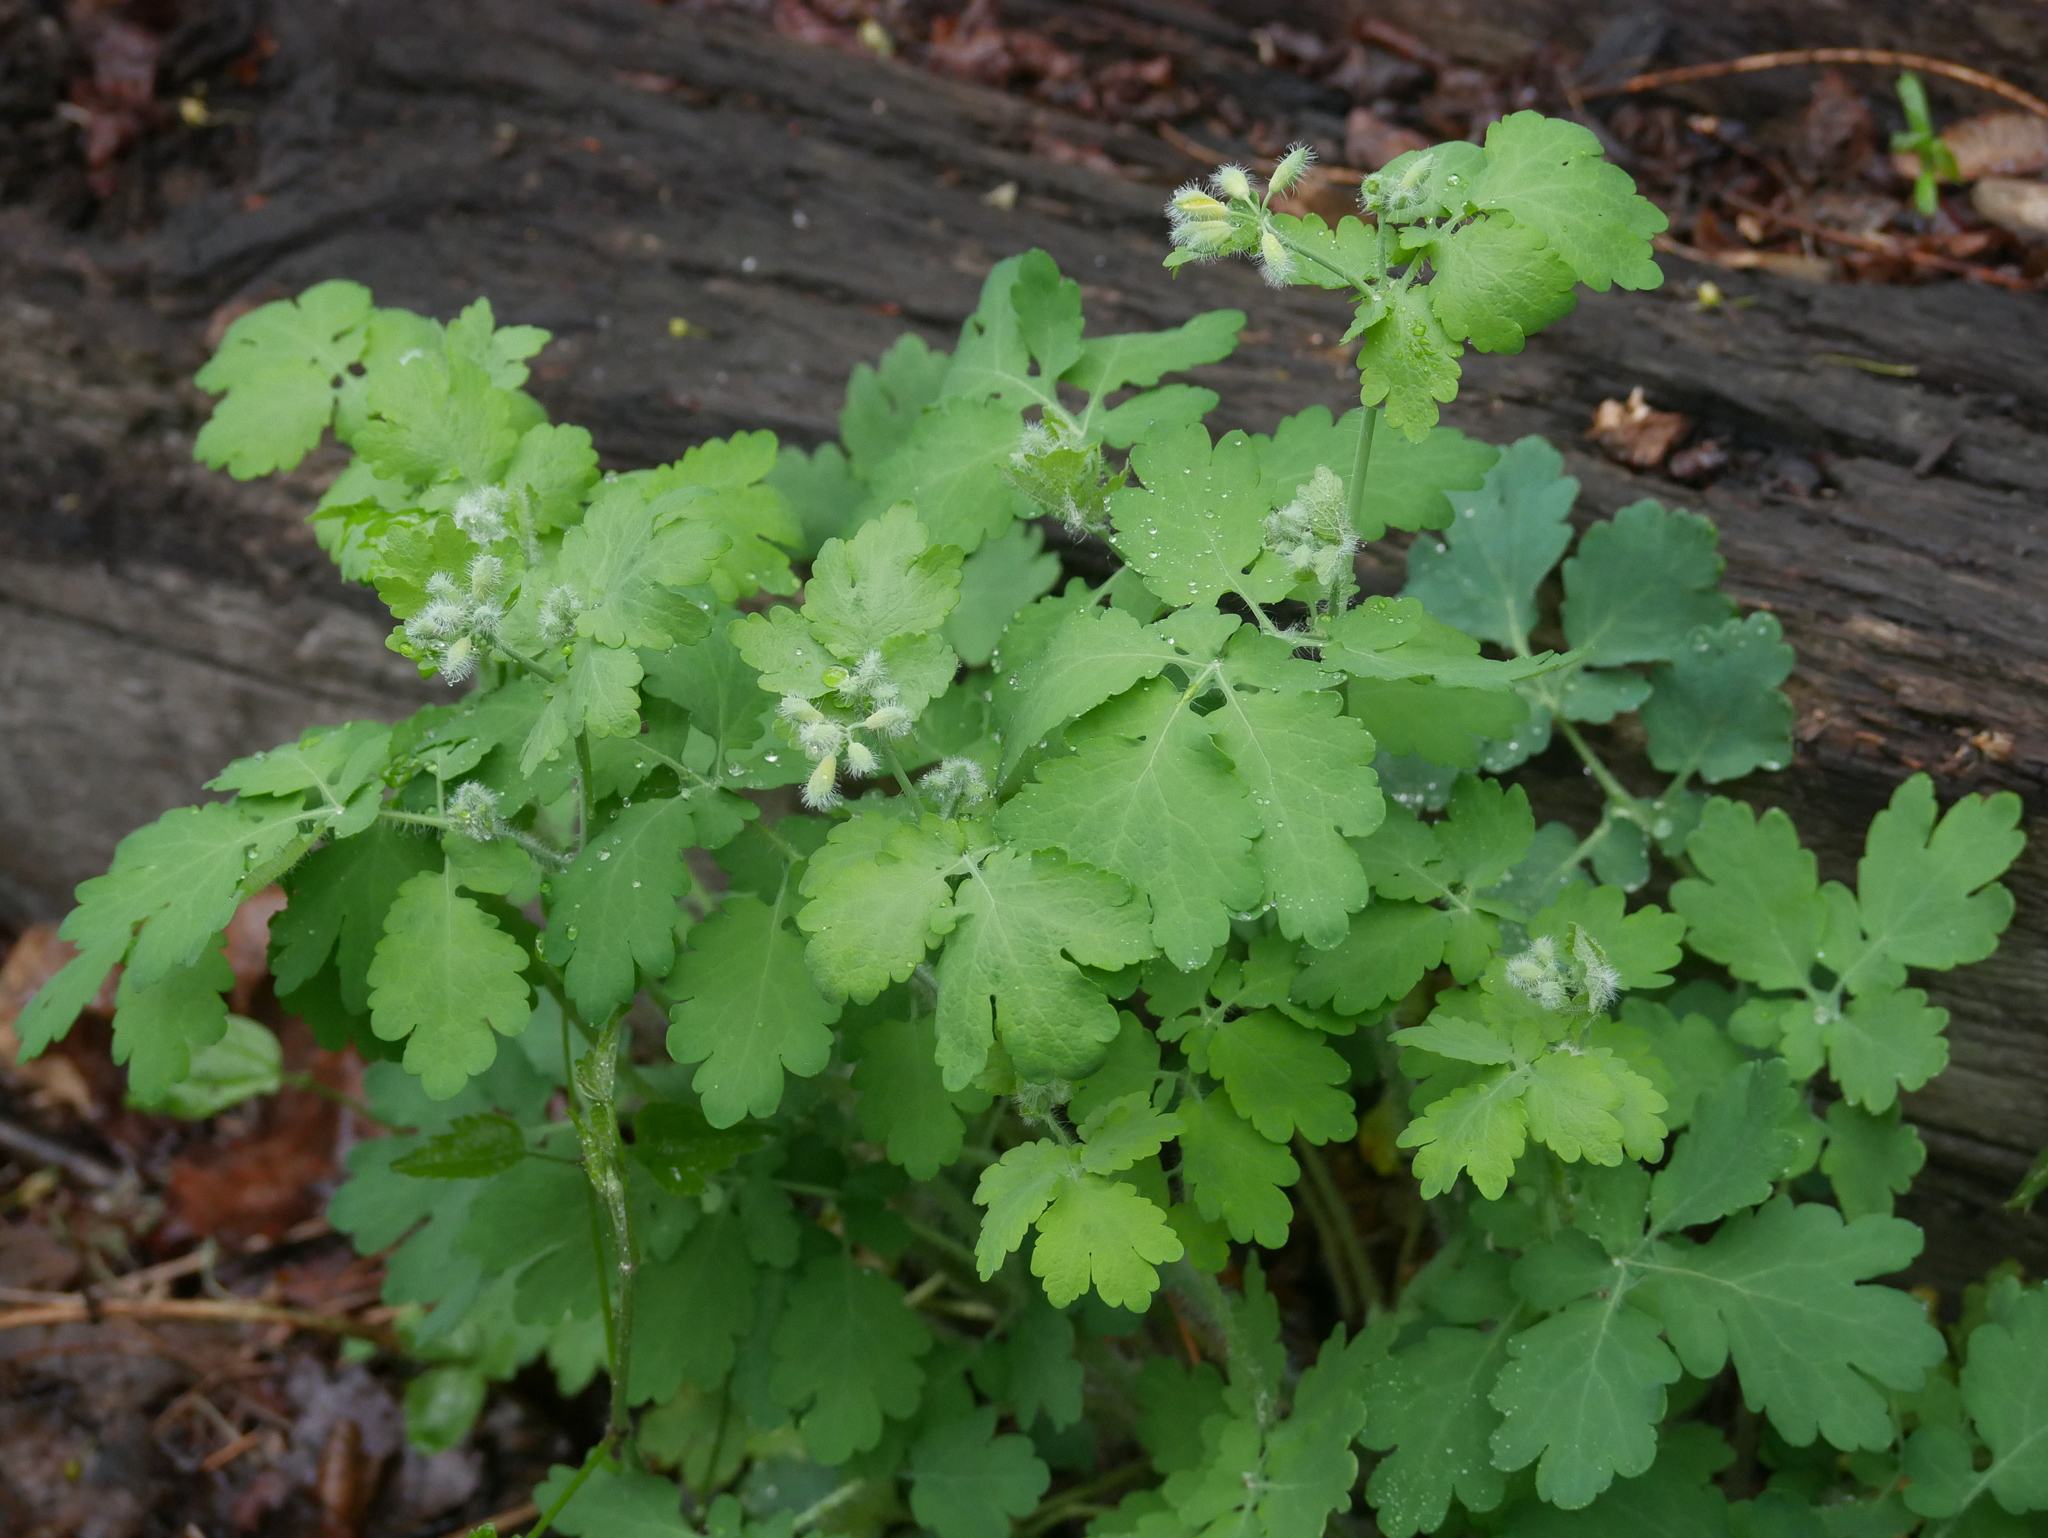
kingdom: Plantae
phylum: Tracheophyta
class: Magnoliopsida
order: Ranunculales
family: Papaveraceae
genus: Chelidonium
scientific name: Chelidonium majus
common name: Greater celandine
